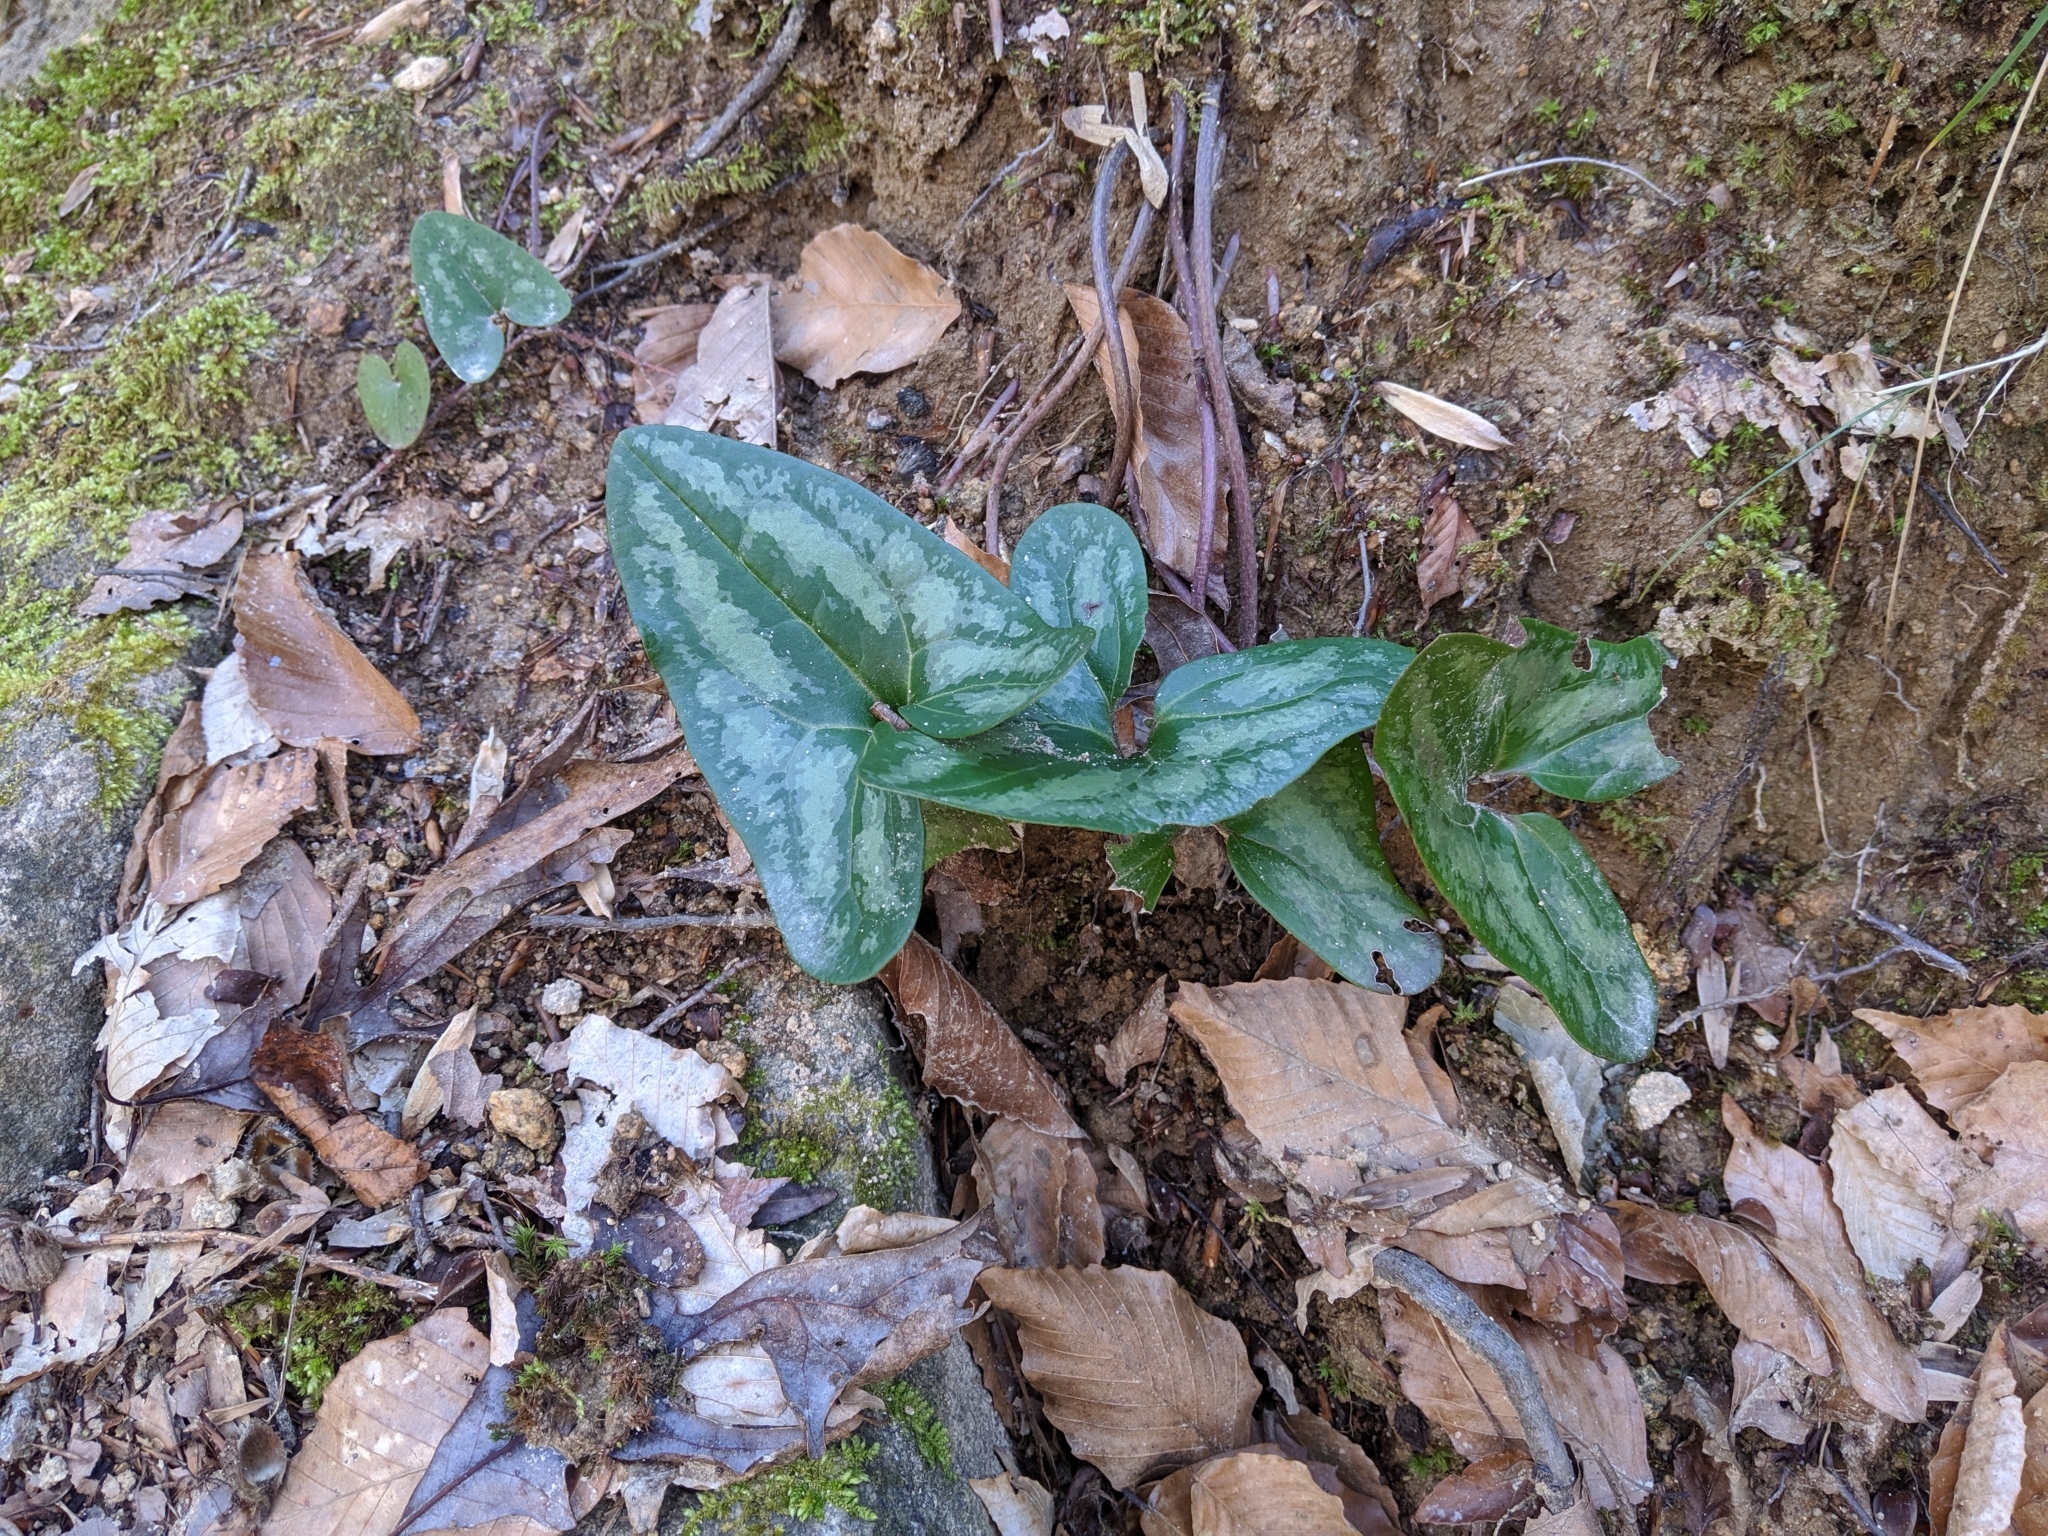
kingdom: Plantae
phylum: Tracheophyta
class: Magnoliopsida
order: Piperales
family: Aristolochiaceae
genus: Hexastylis
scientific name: Hexastylis arifolia
